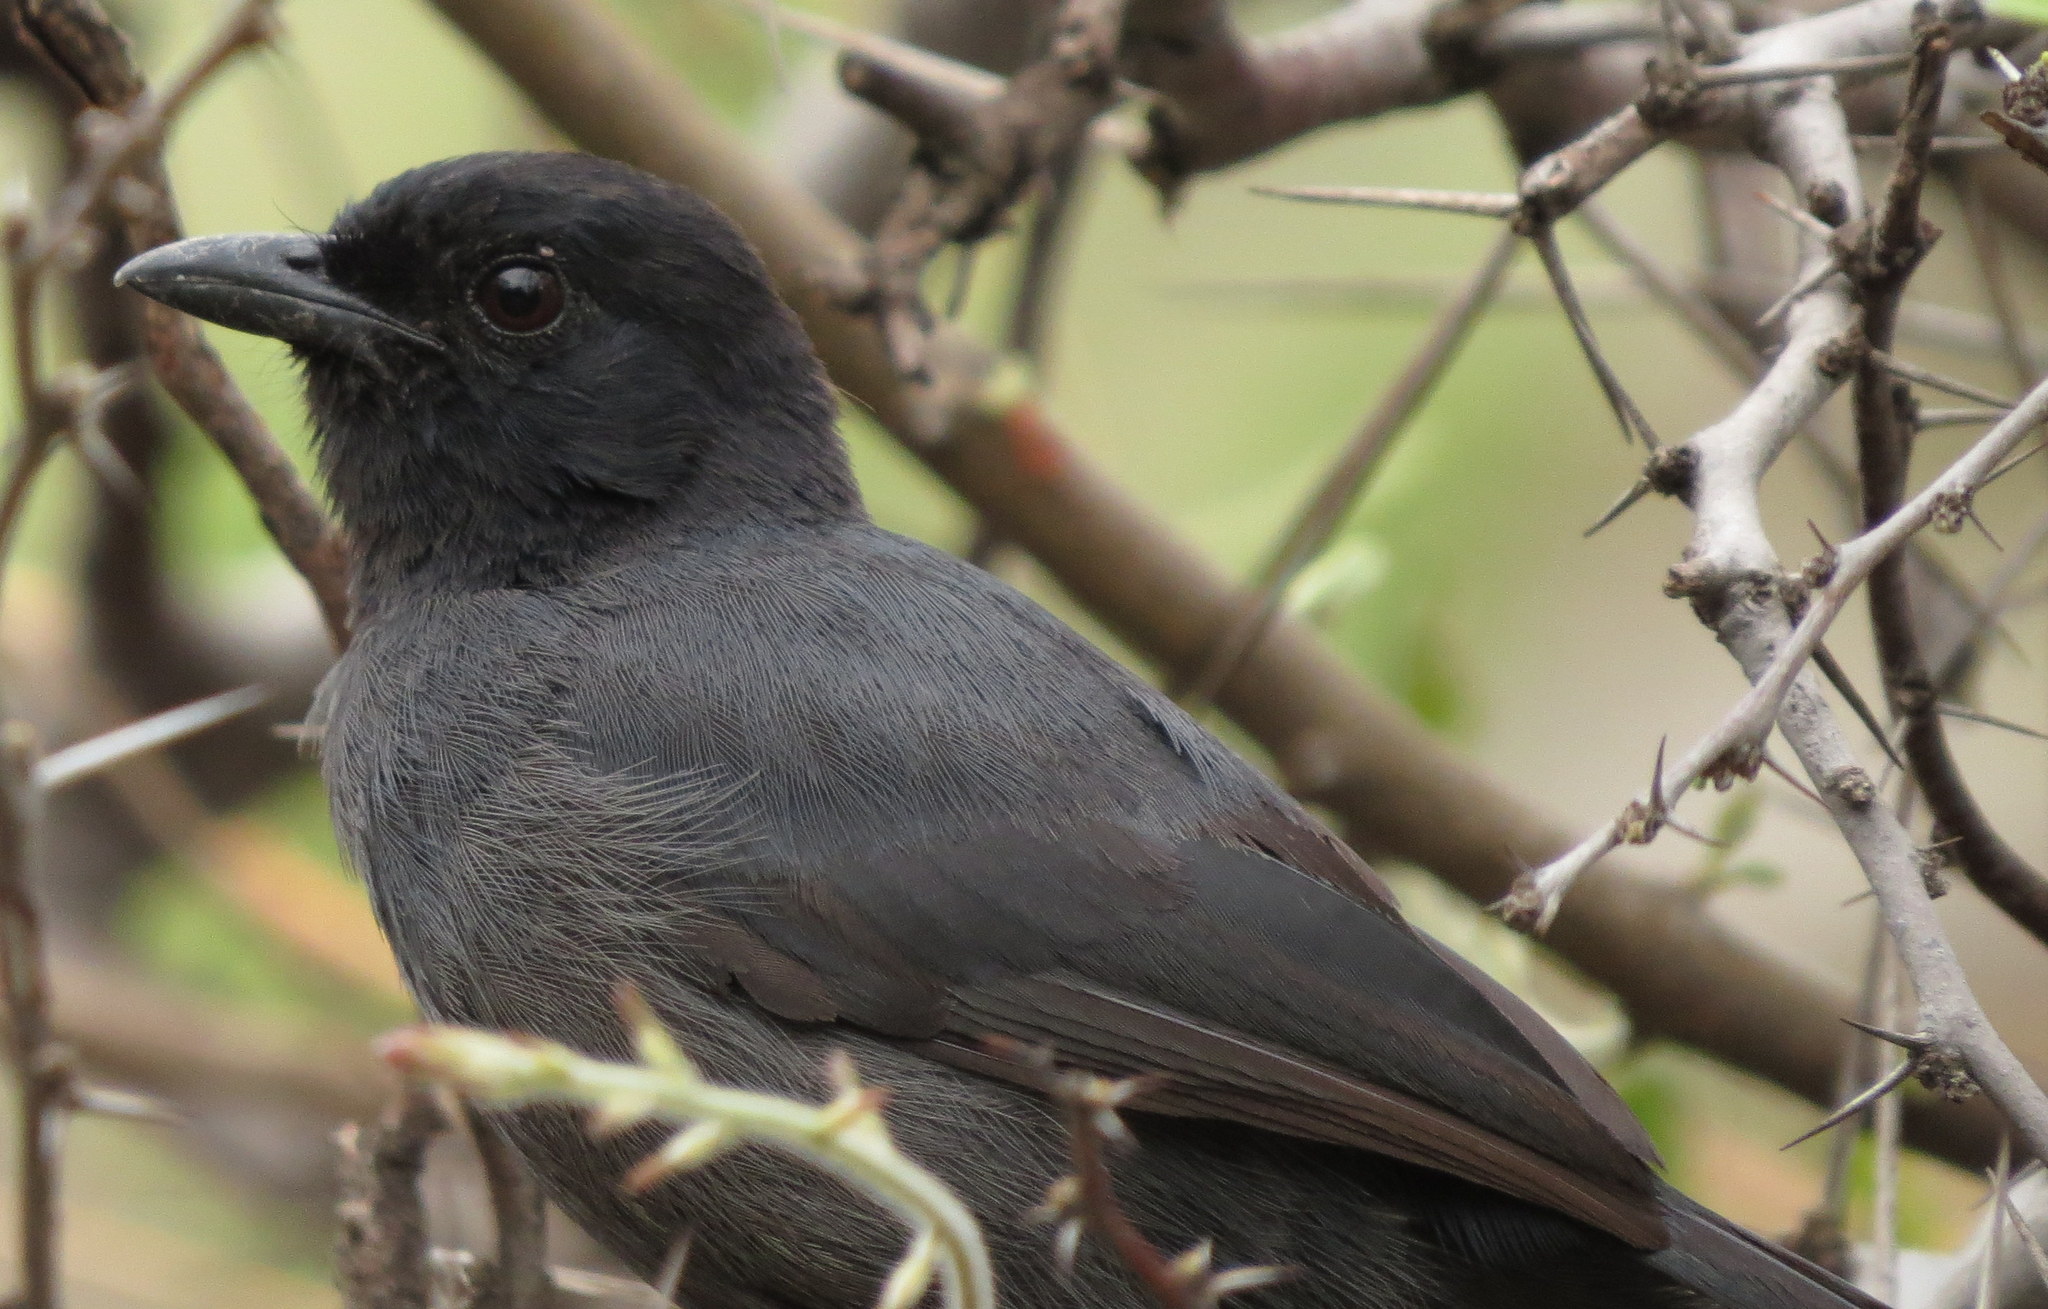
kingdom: Animalia
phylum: Chordata
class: Aves
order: Passeriformes
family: Malaconotidae
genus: Laniarius
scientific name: Laniarius funebris
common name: Slate-colored boubou
